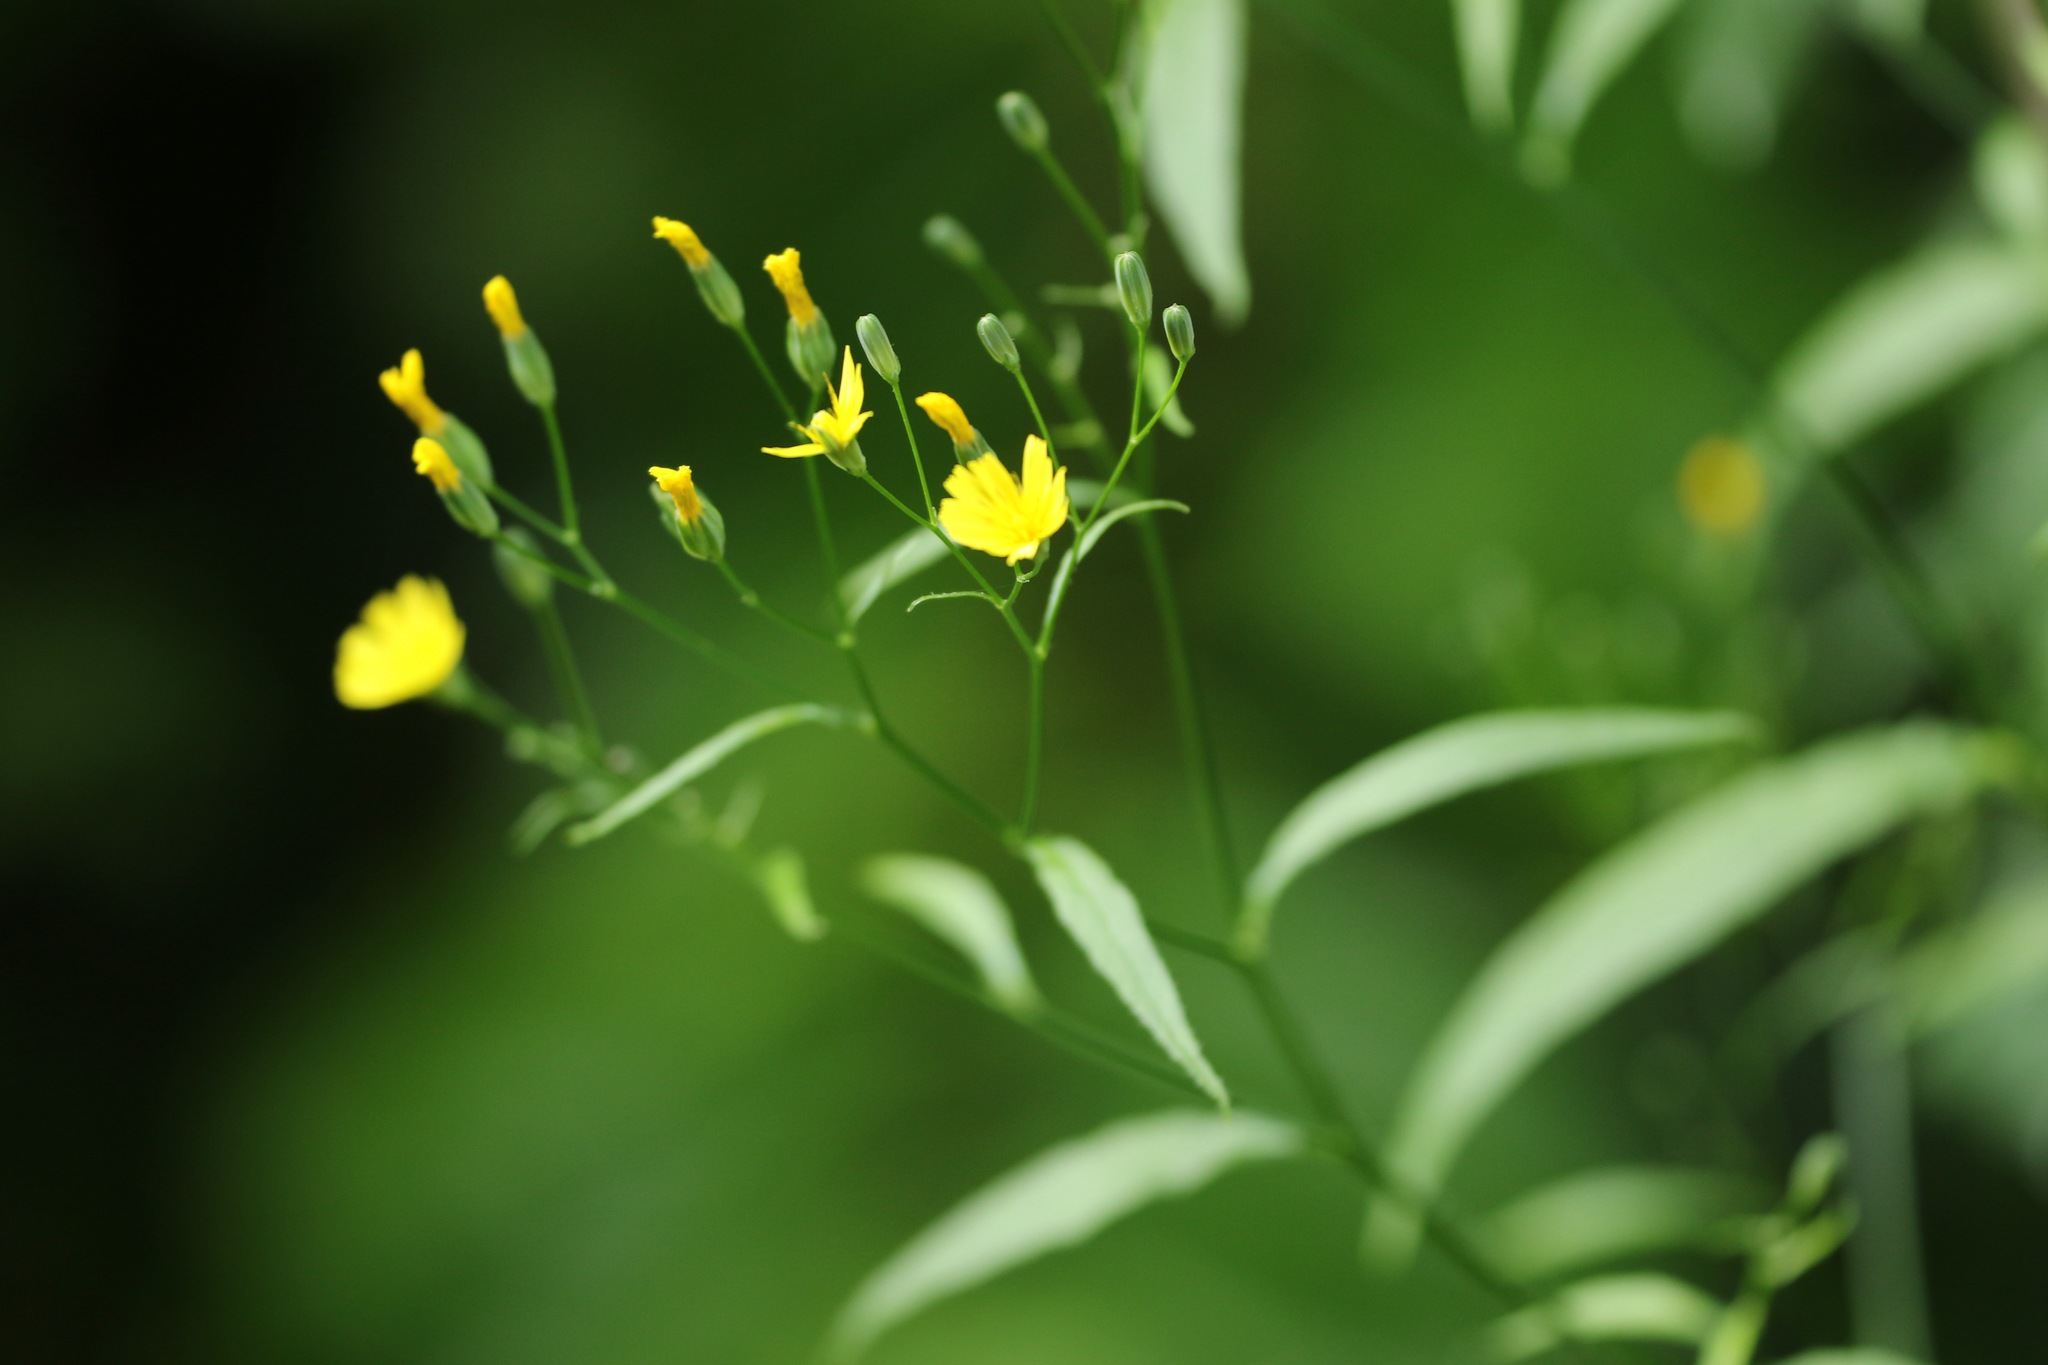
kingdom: Plantae
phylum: Tracheophyta
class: Magnoliopsida
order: Asterales
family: Asteraceae
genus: Lapsana
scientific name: Lapsana communis
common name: Nipplewort
